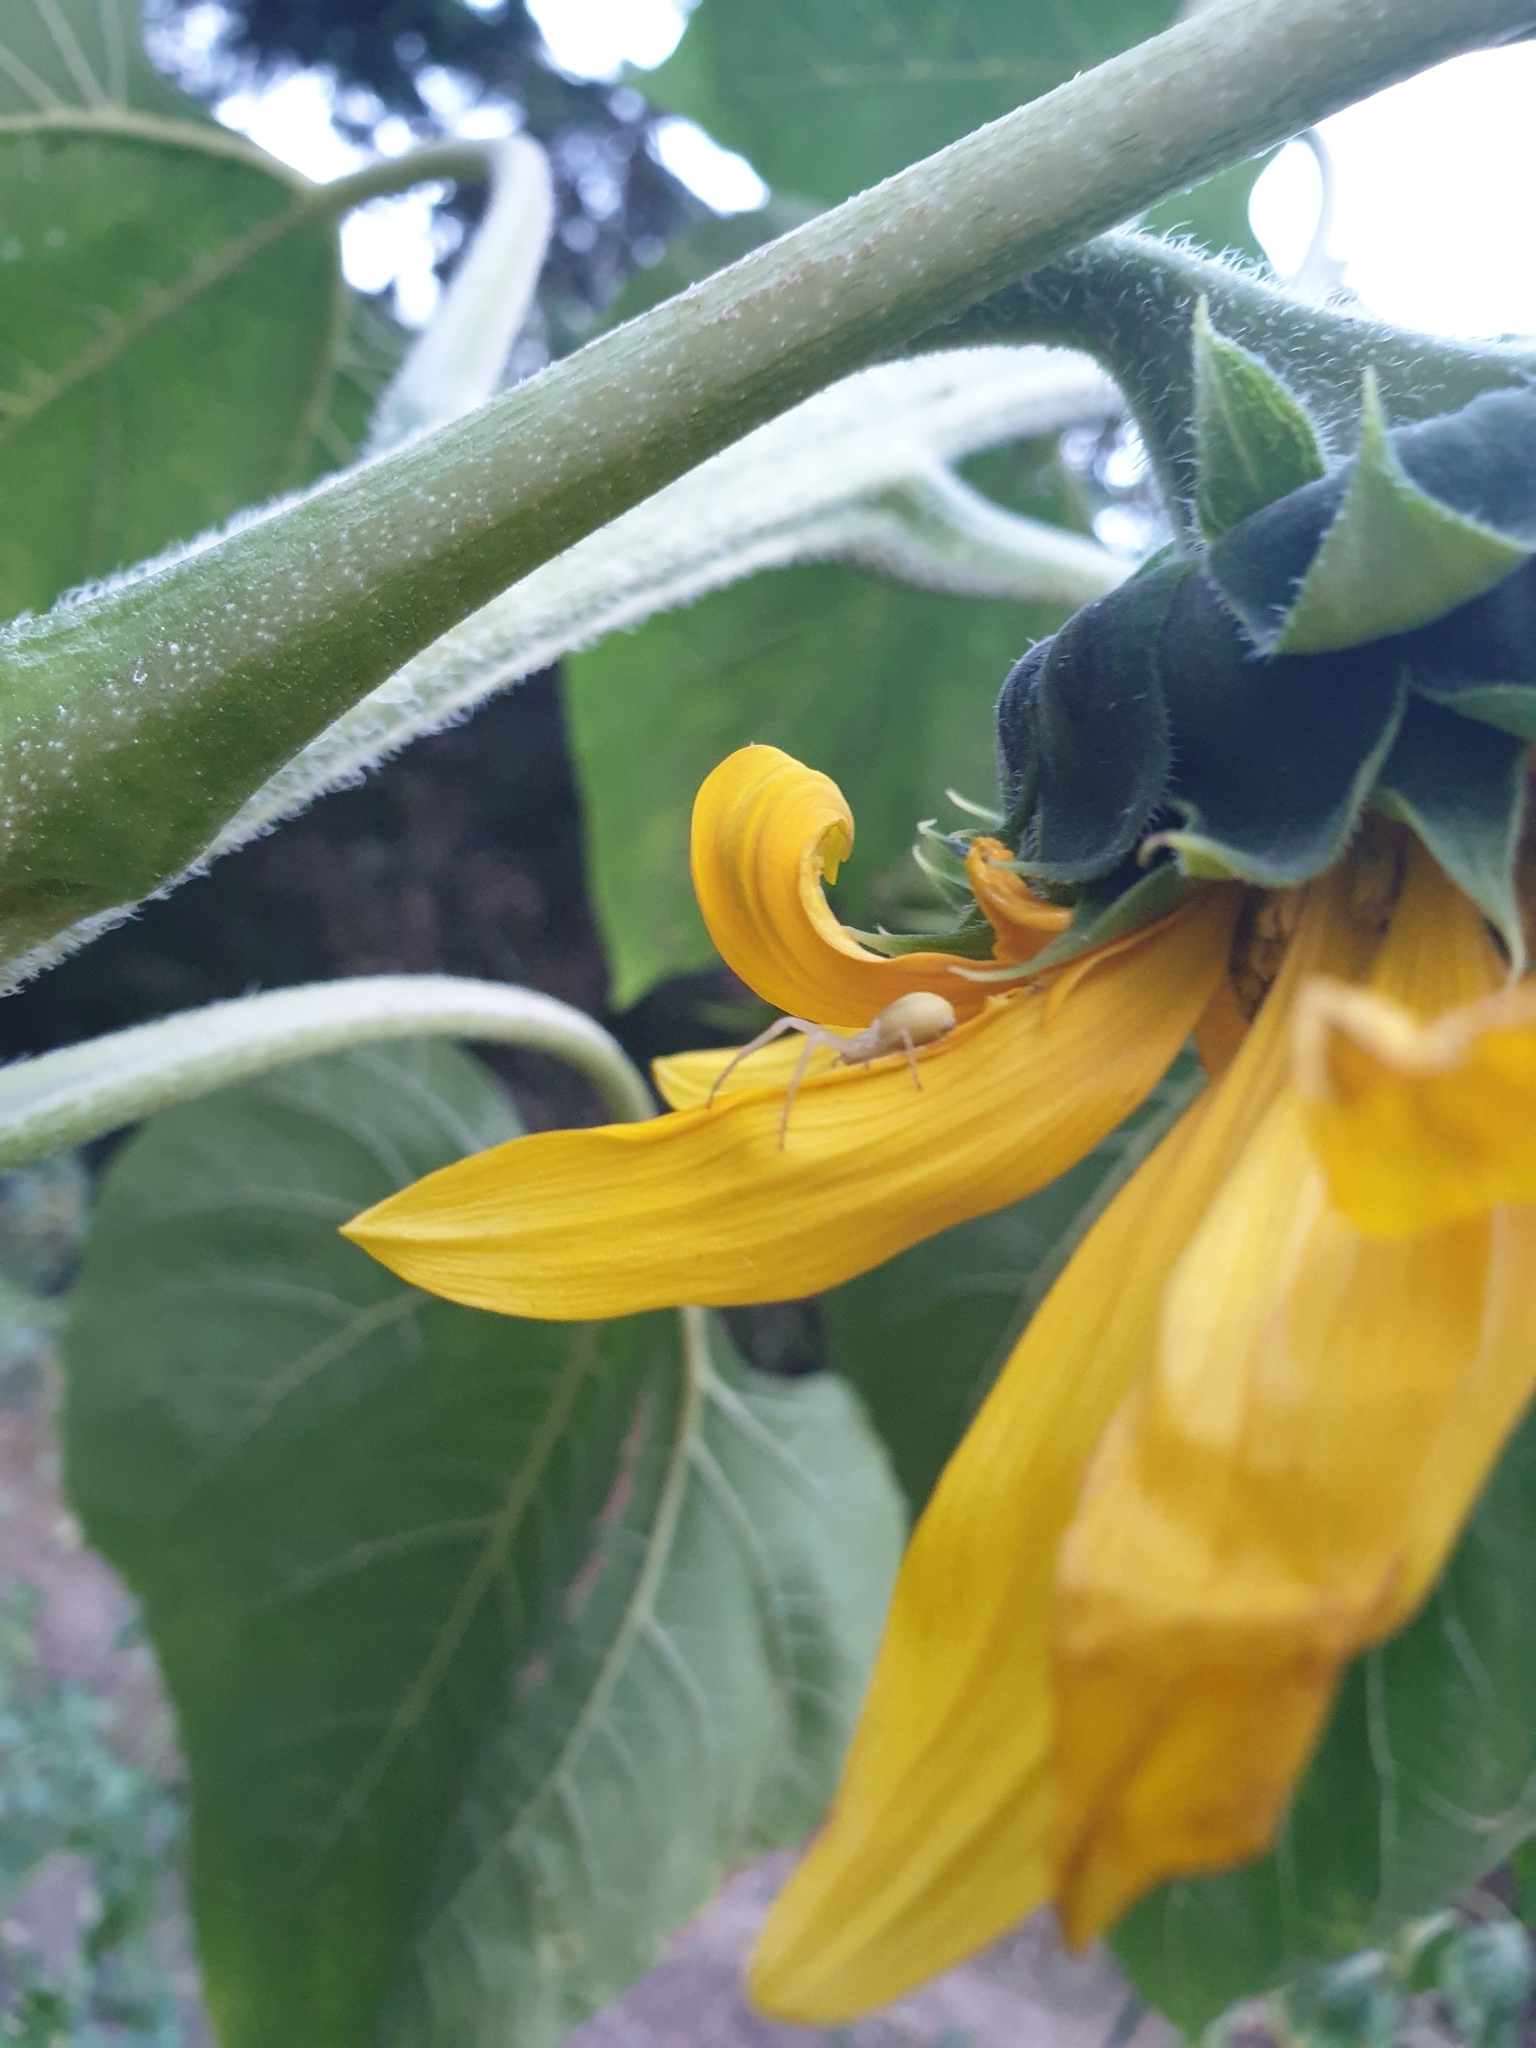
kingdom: Animalia
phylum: Arthropoda
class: Arachnida
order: Araneae
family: Thomisidae
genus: Runcinia
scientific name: Runcinia grammica
